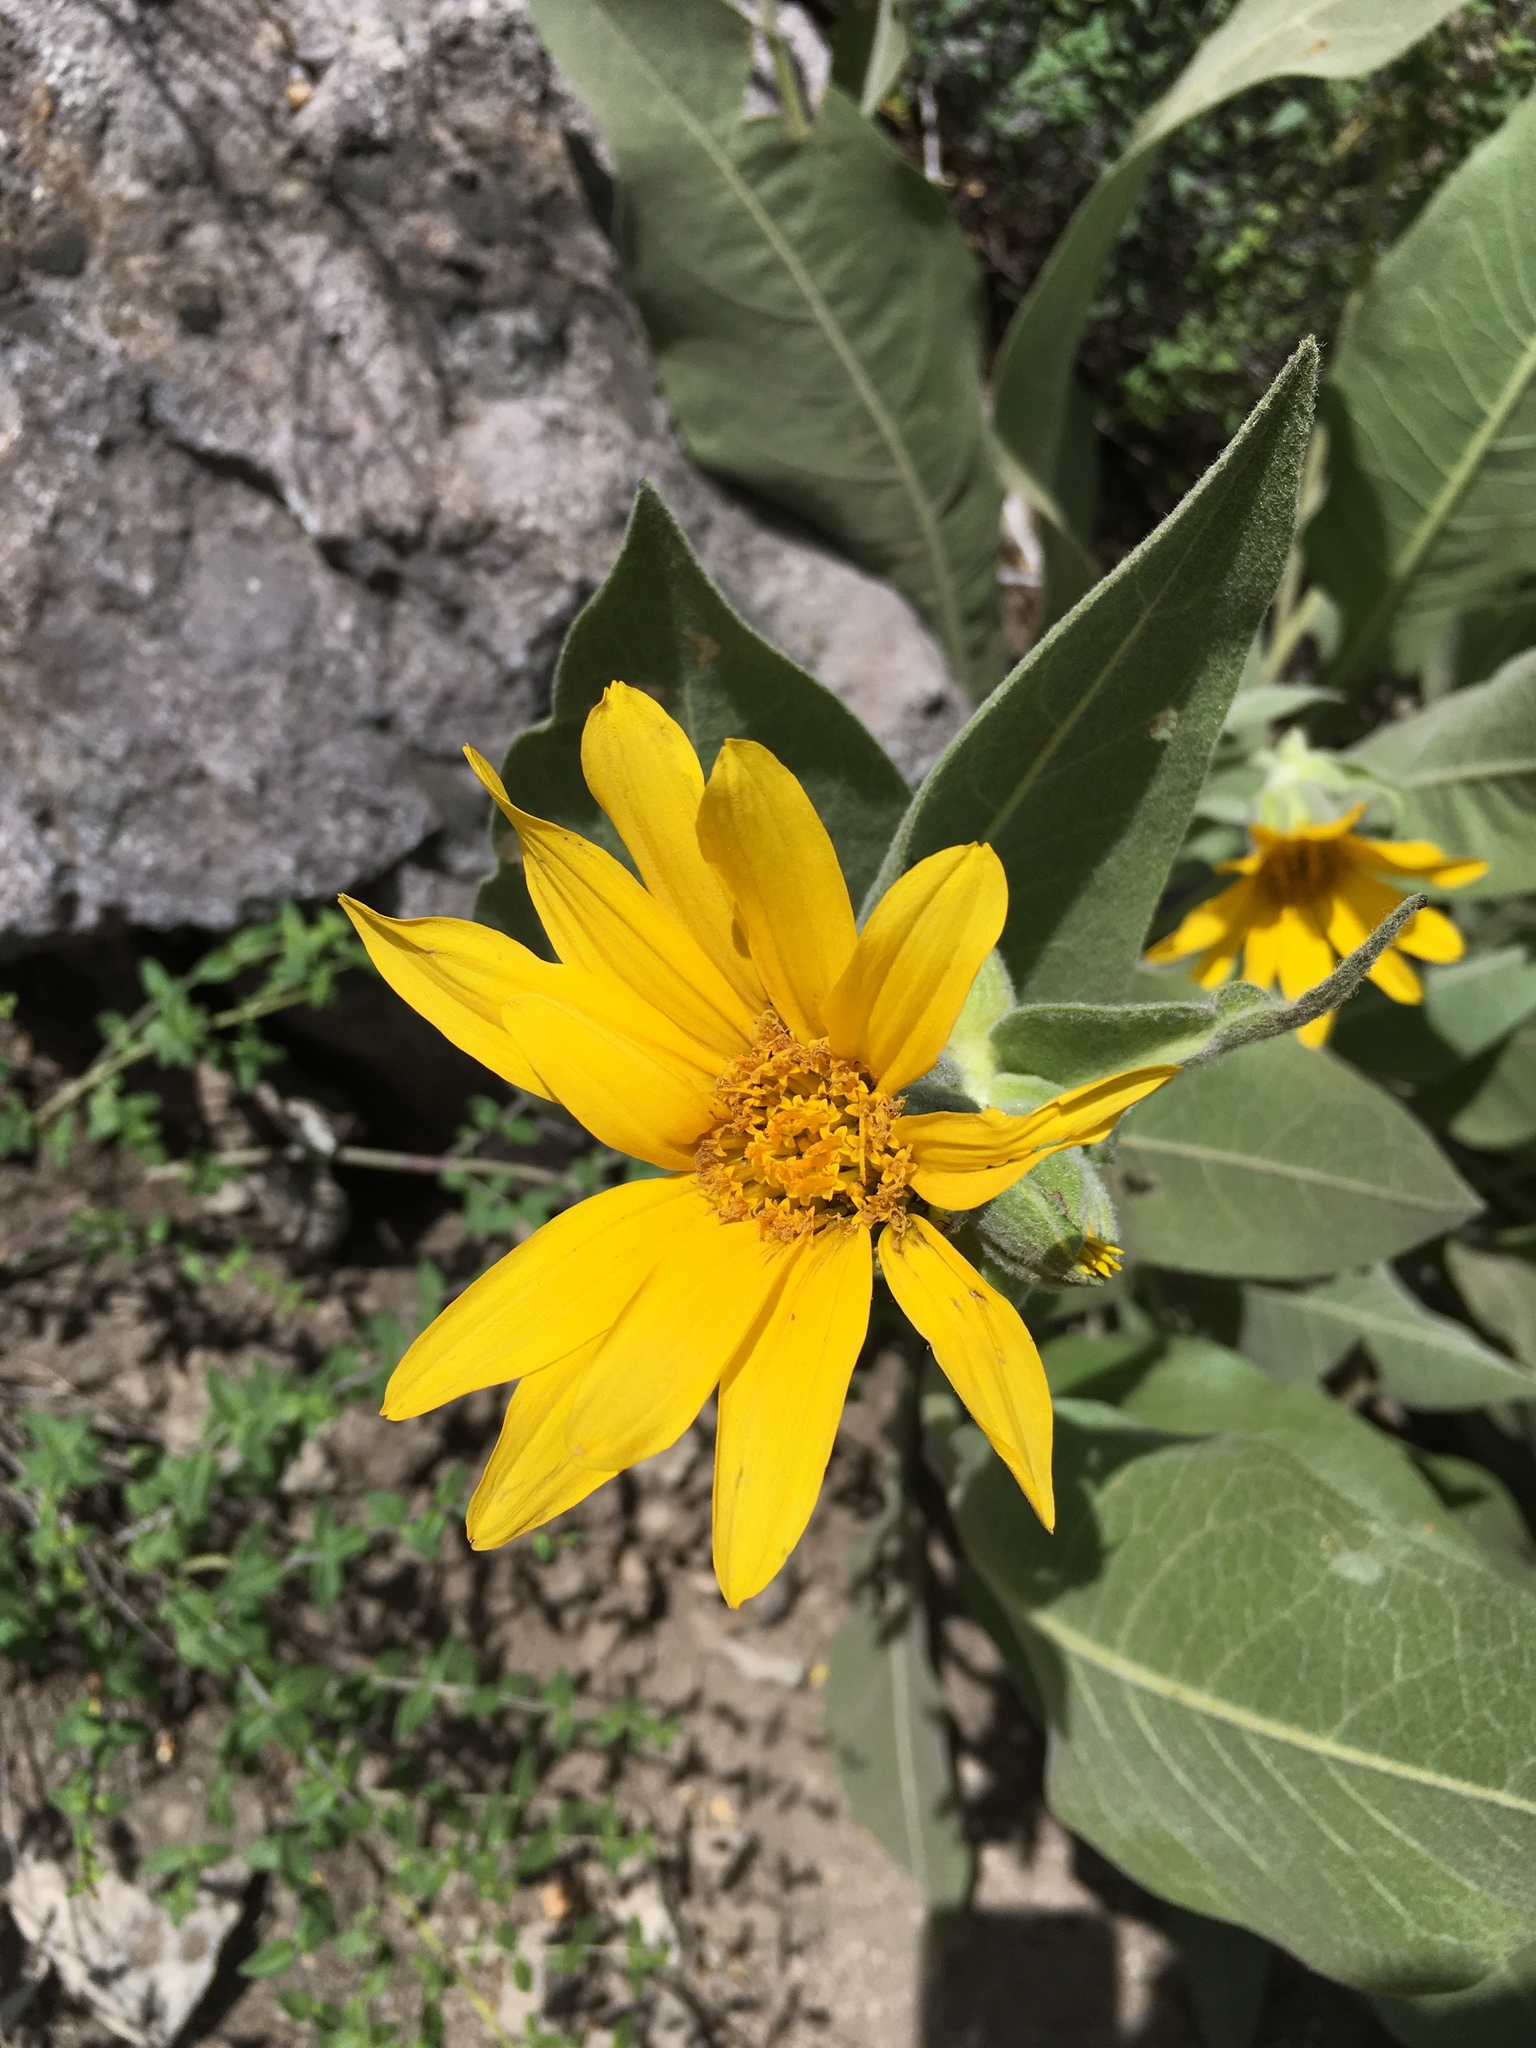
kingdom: Plantae
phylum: Tracheophyta
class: Magnoliopsida
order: Asterales
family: Asteraceae
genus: Wyethia
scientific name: Wyethia mollis
